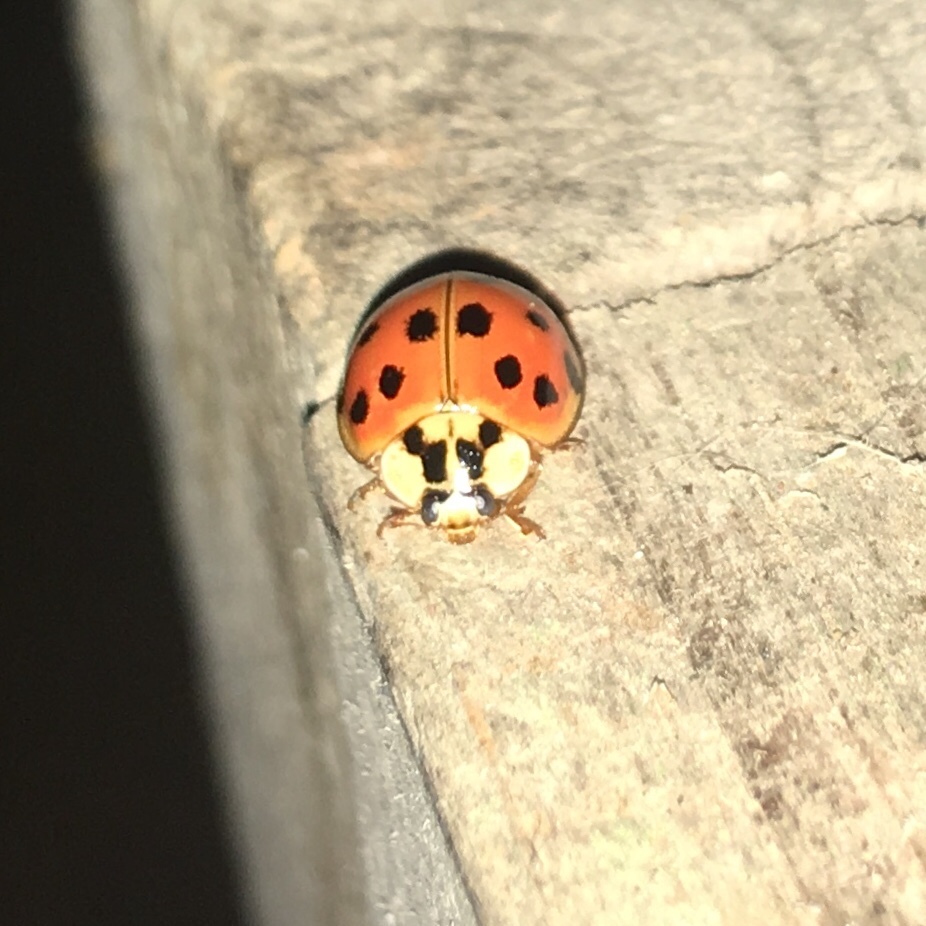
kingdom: Animalia
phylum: Arthropoda
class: Insecta
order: Coleoptera
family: Coccinellidae
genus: Harmonia
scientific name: Harmonia axyridis
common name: Harlequin ladybird
